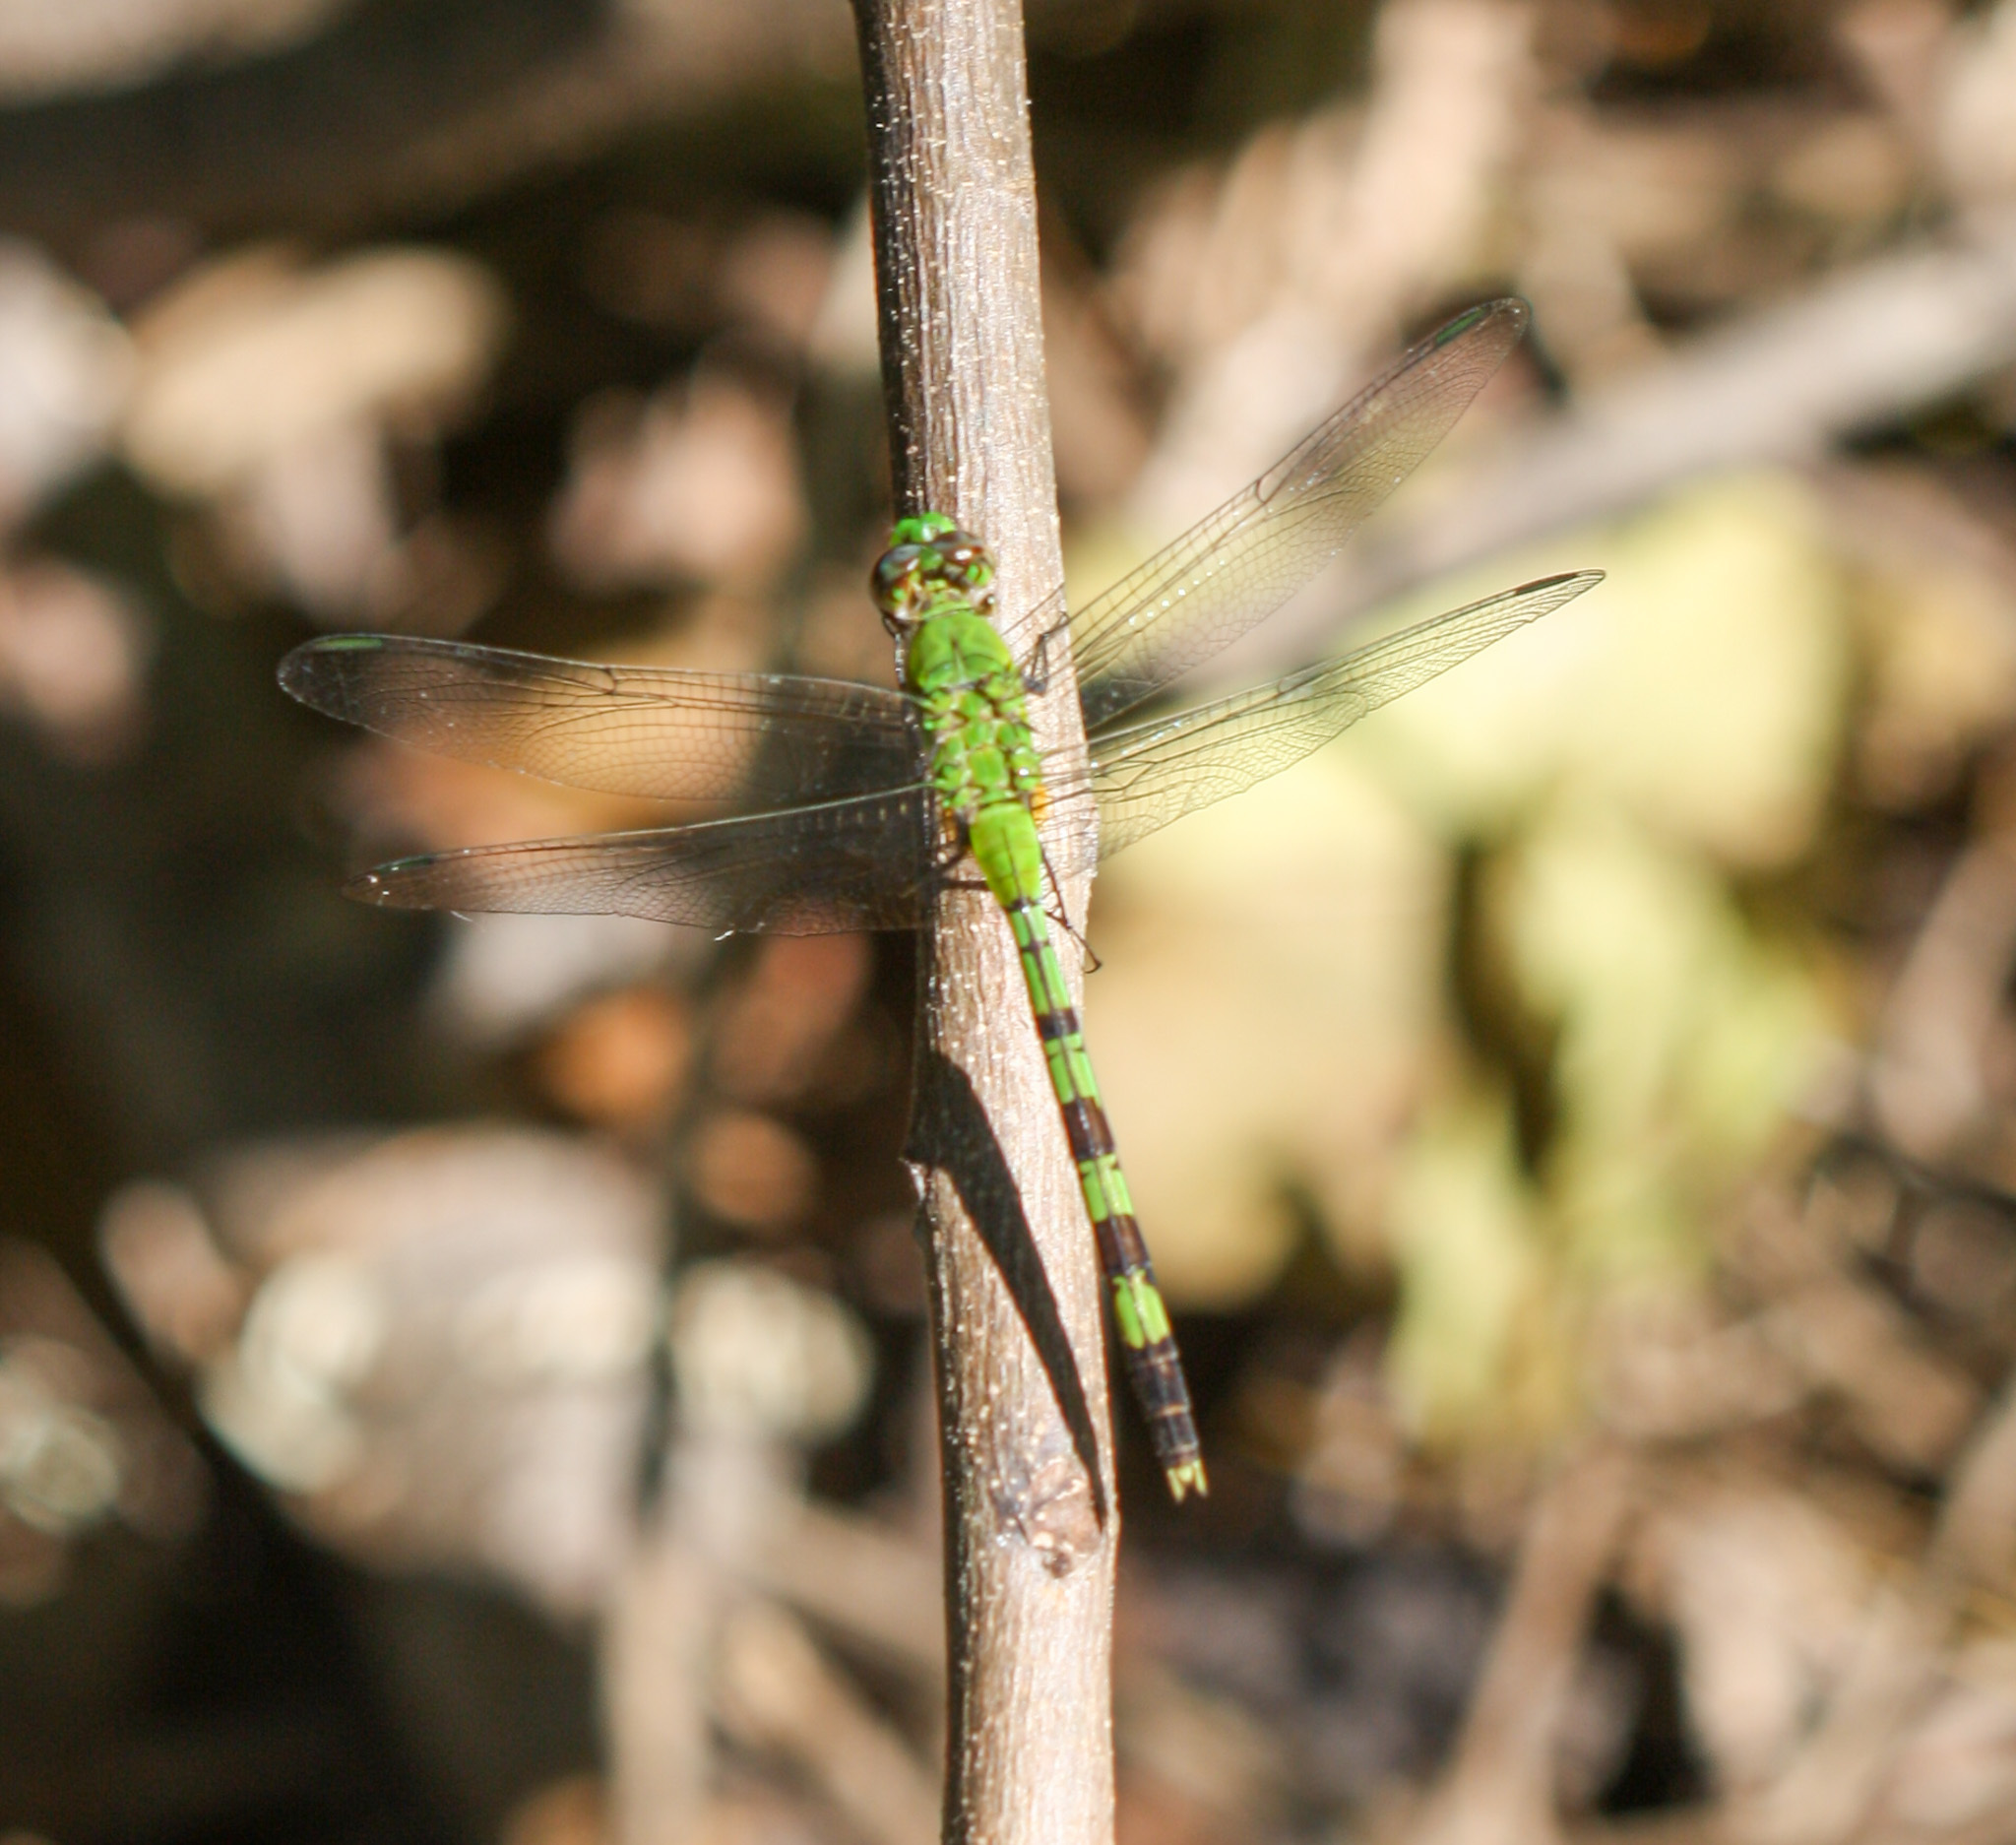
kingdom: Animalia
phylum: Arthropoda
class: Insecta
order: Odonata
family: Libellulidae
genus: Erythemis
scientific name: Erythemis vesiculosa
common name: Great pondhawk
